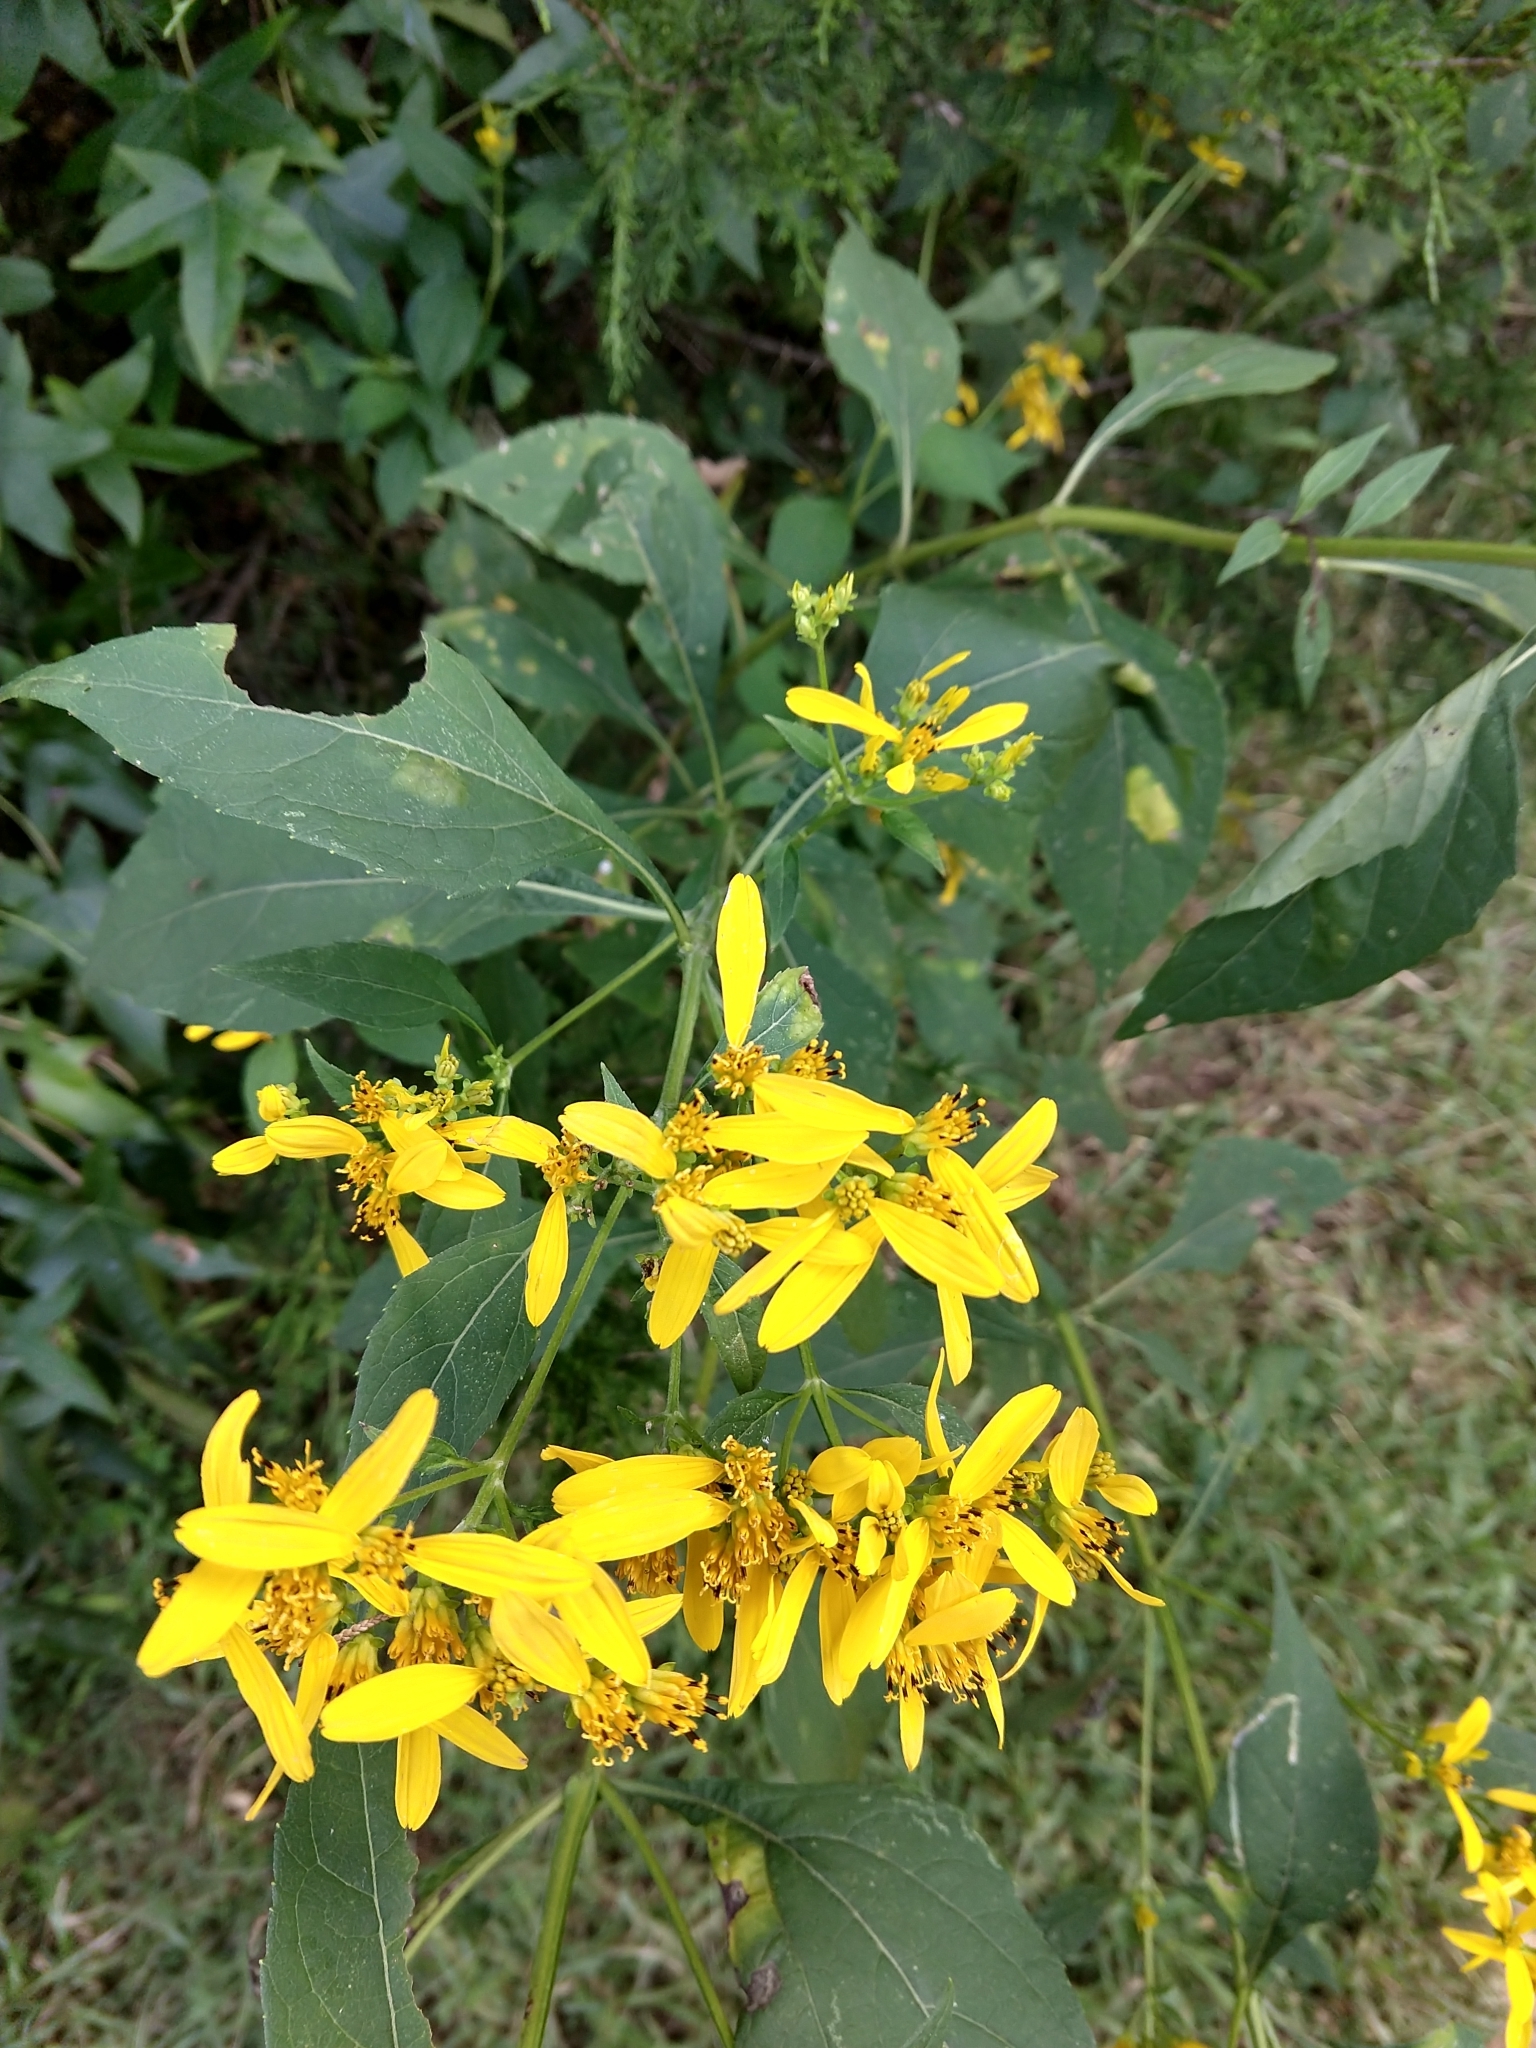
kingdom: Plantae
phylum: Tracheophyta
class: Magnoliopsida
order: Asterales
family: Asteraceae
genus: Verbesina
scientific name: Verbesina occidentalis
